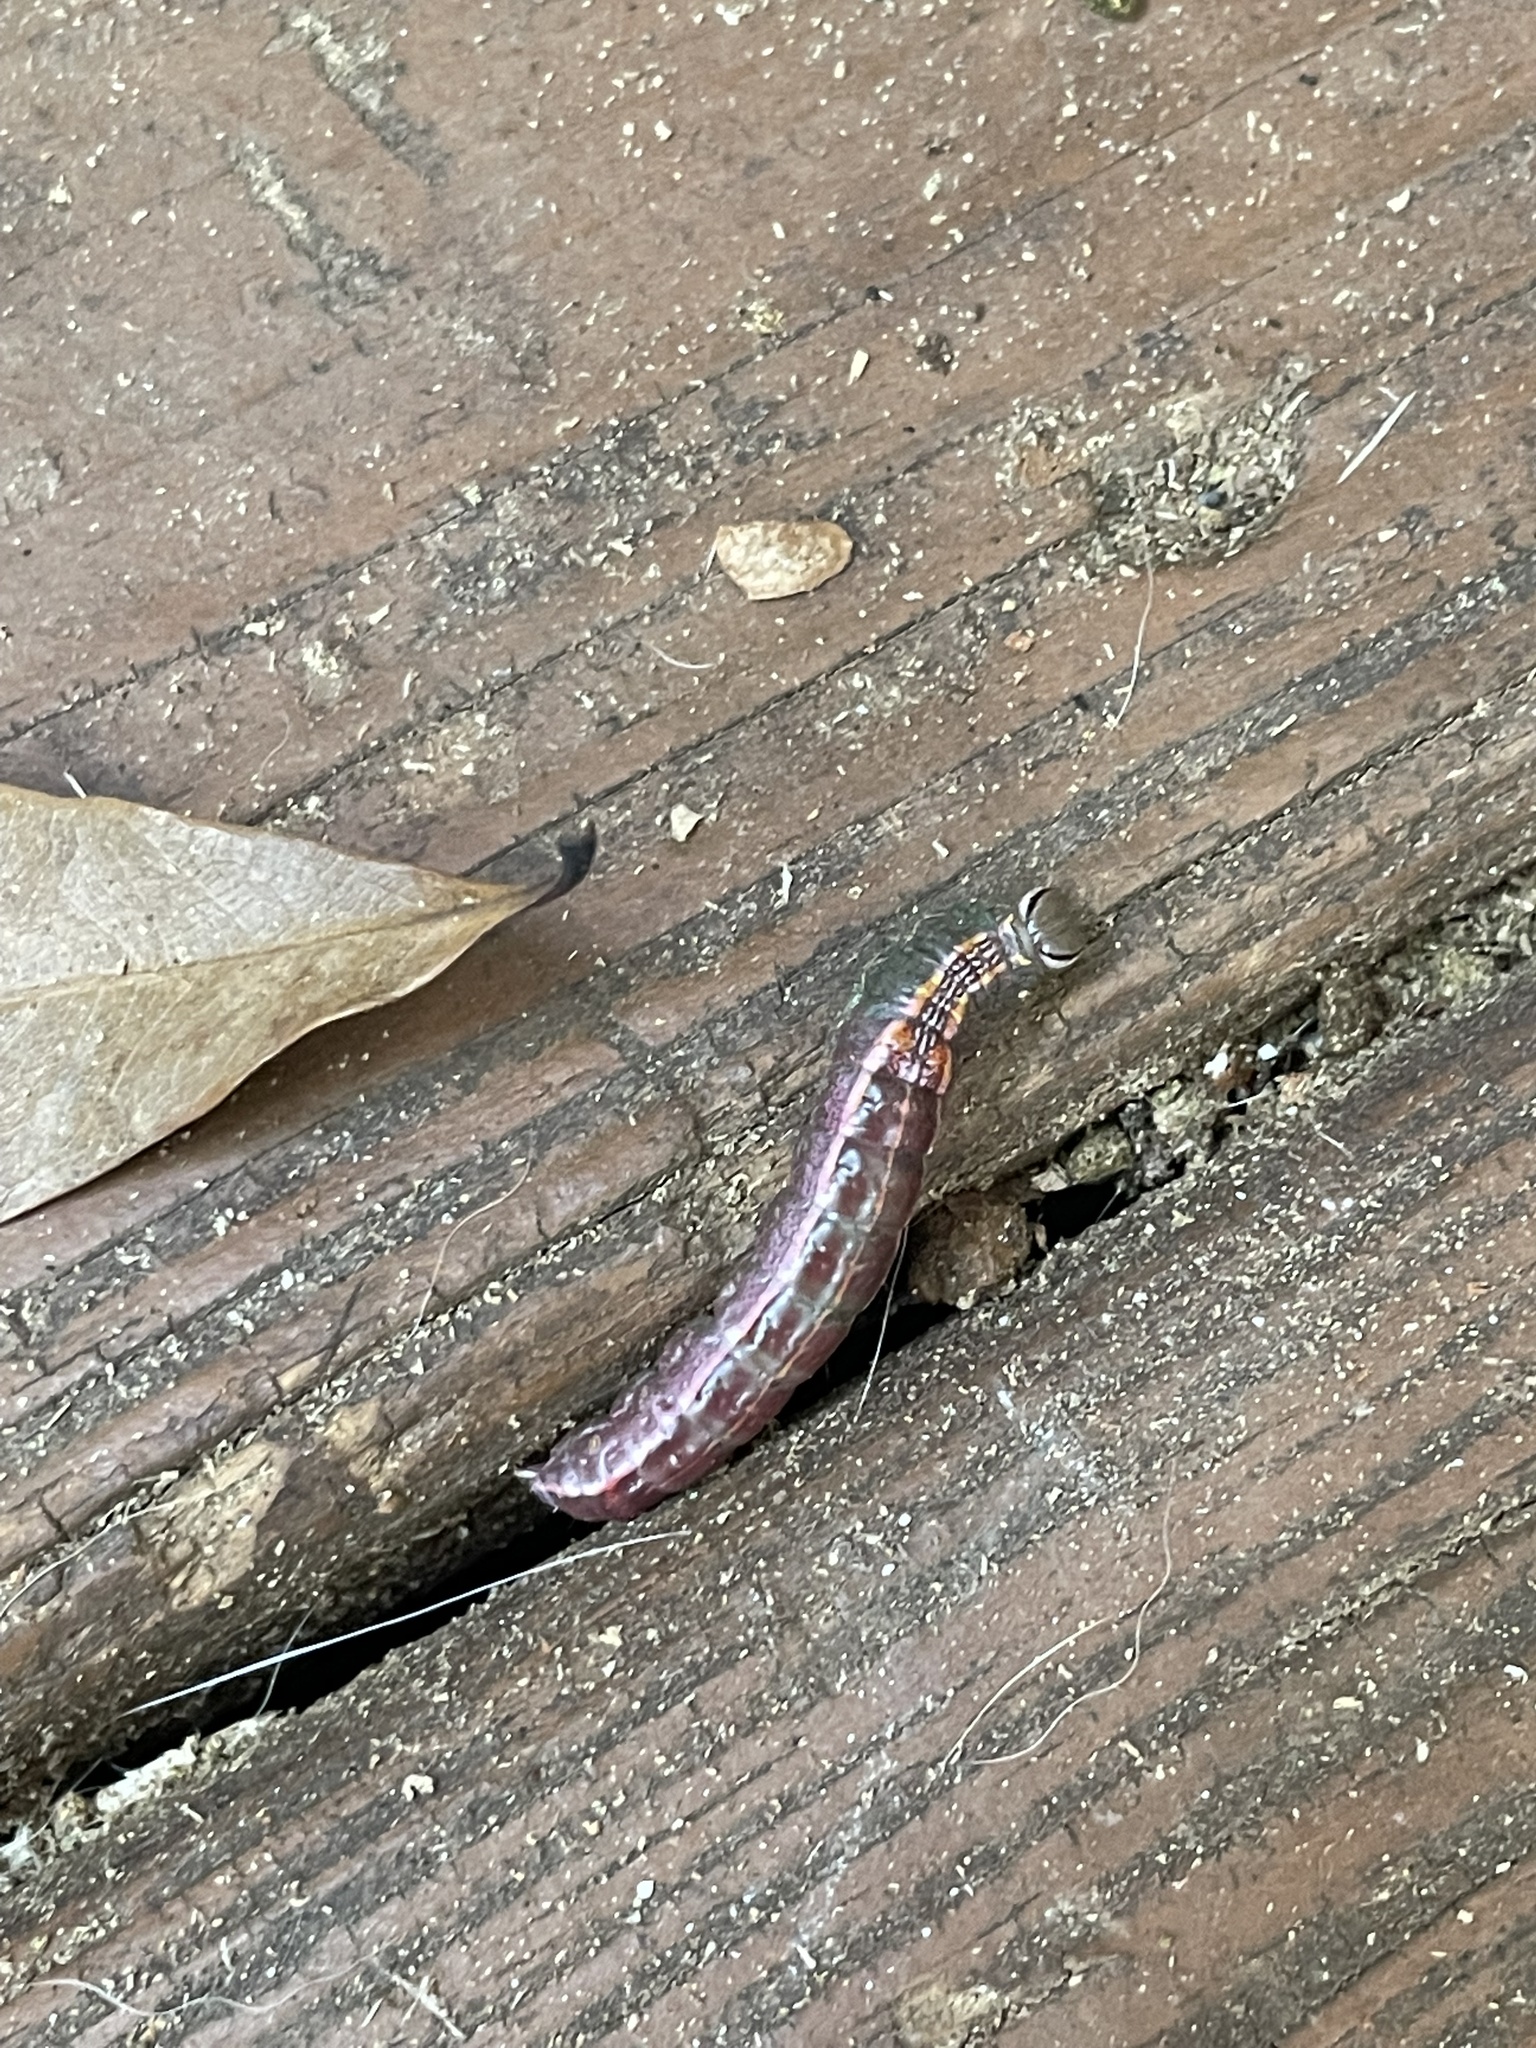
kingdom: Animalia
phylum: Arthropoda
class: Insecta
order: Lepidoptera
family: Notodontidae
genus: Lochmaeus
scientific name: Lochmaeus manteo
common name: Variable oakleaf caterpillar moth
